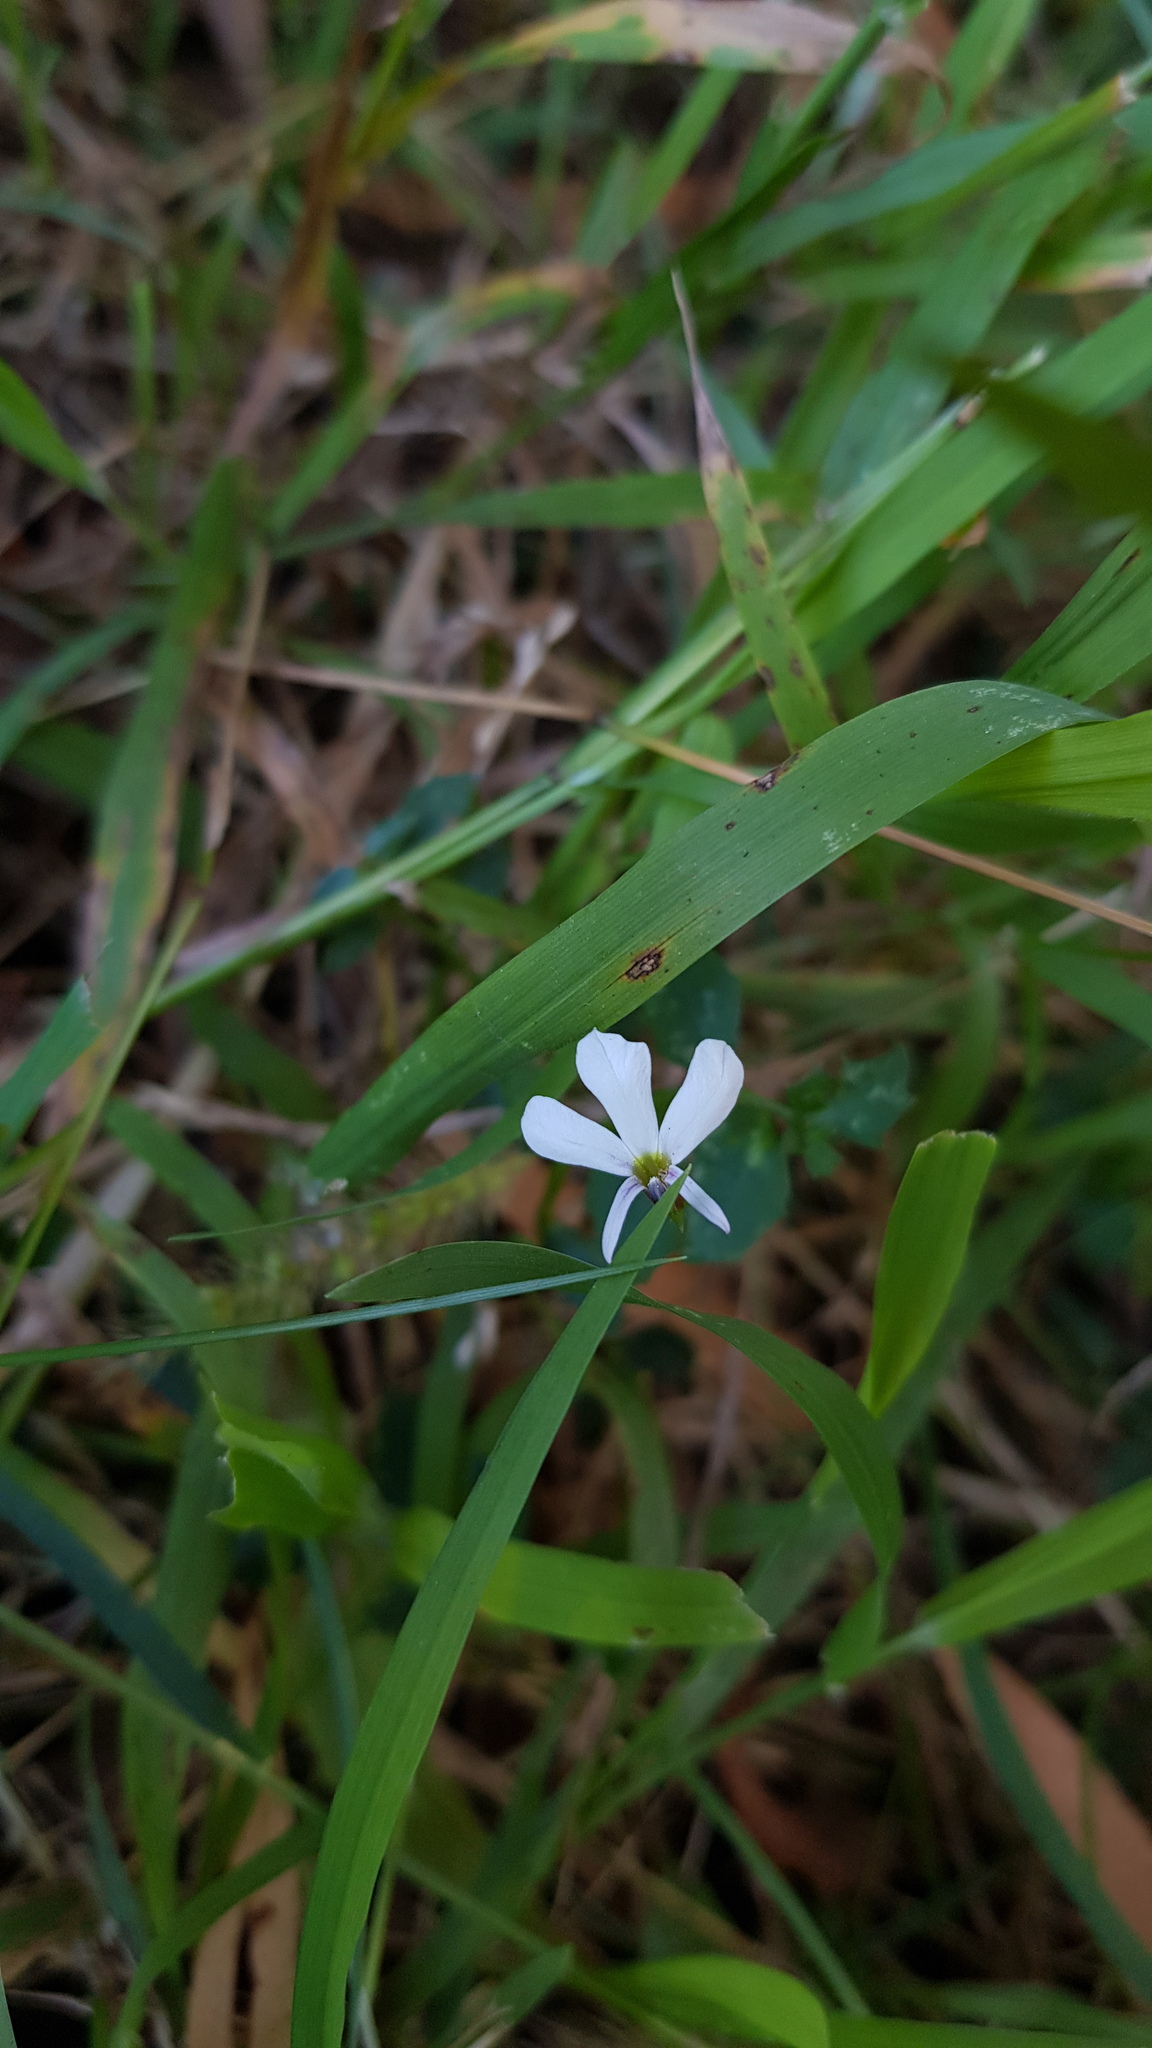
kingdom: Plantae
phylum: Tracheophyta
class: Magnoliopsida
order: Asterales
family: Campanulaceae
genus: Lobelia
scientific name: Lobelia purpurascens
